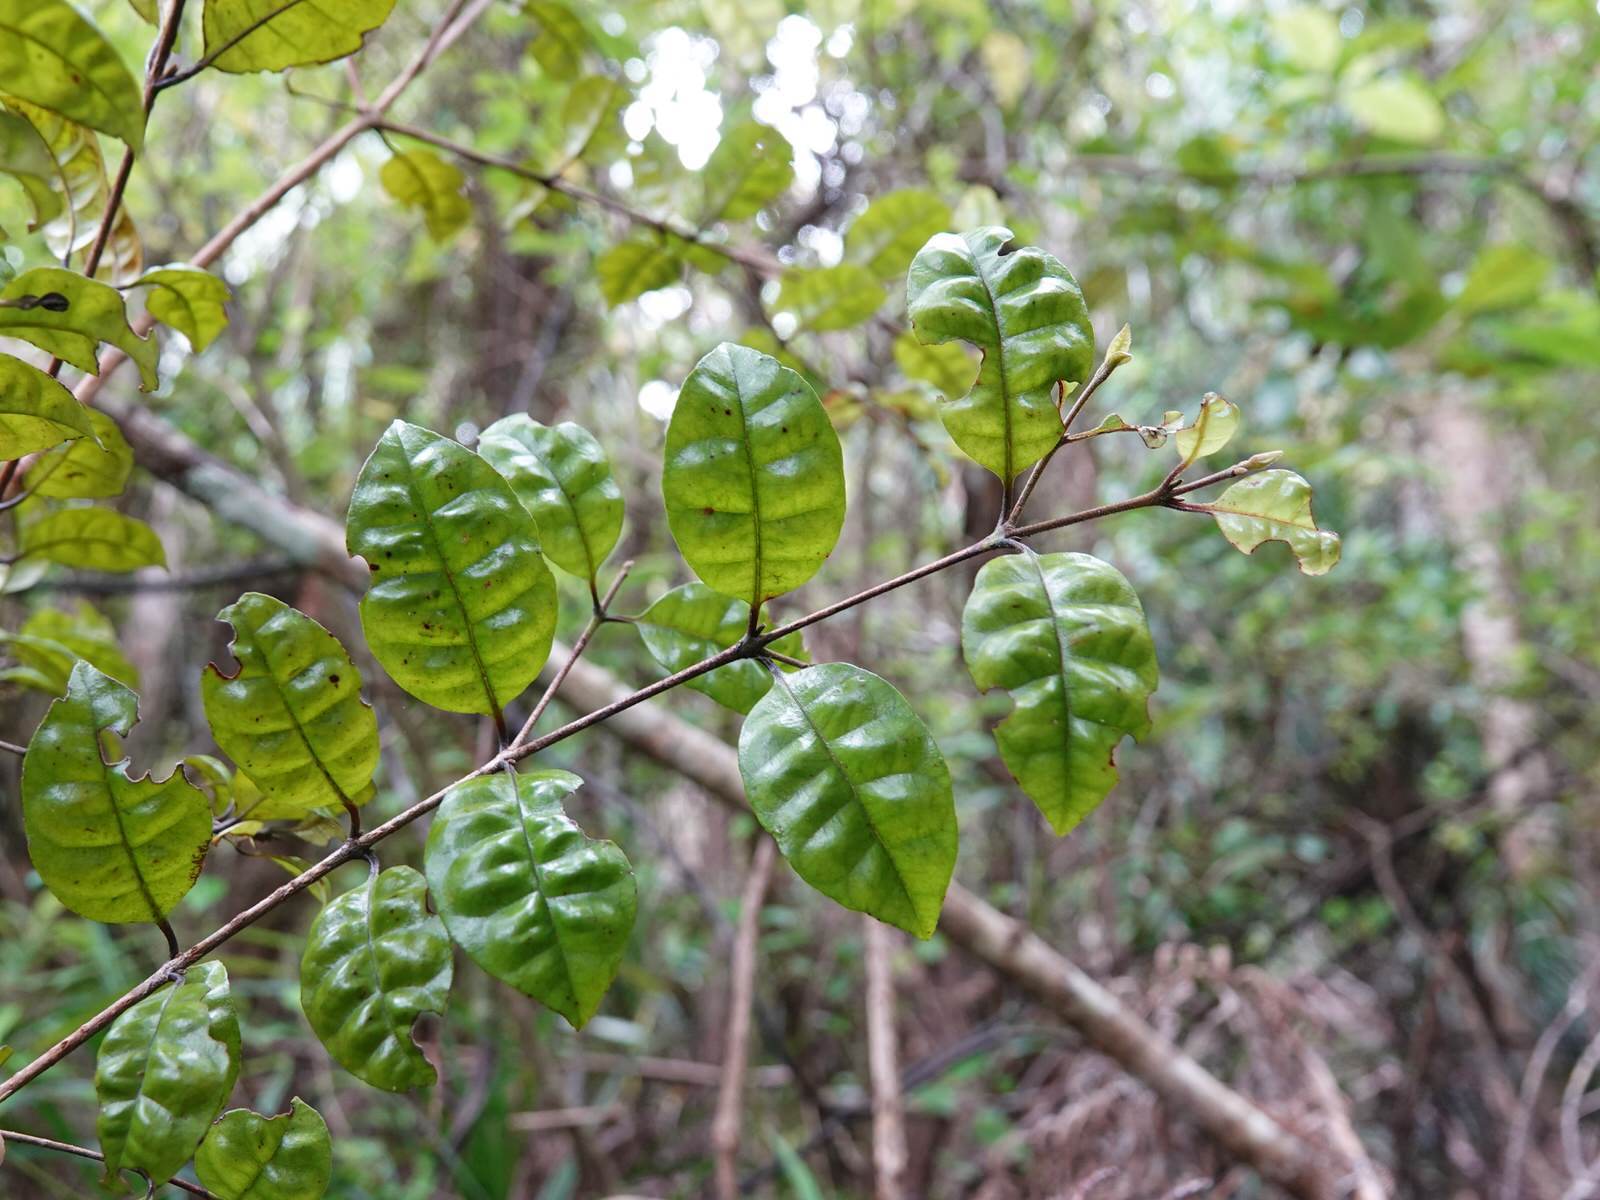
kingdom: Plantae
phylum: Tracheophyta
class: Magnoliopsida
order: Myrtales
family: Myrtaceae
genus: Lophomyrtus
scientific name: Lophomyrtus bullata
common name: Rama rama
